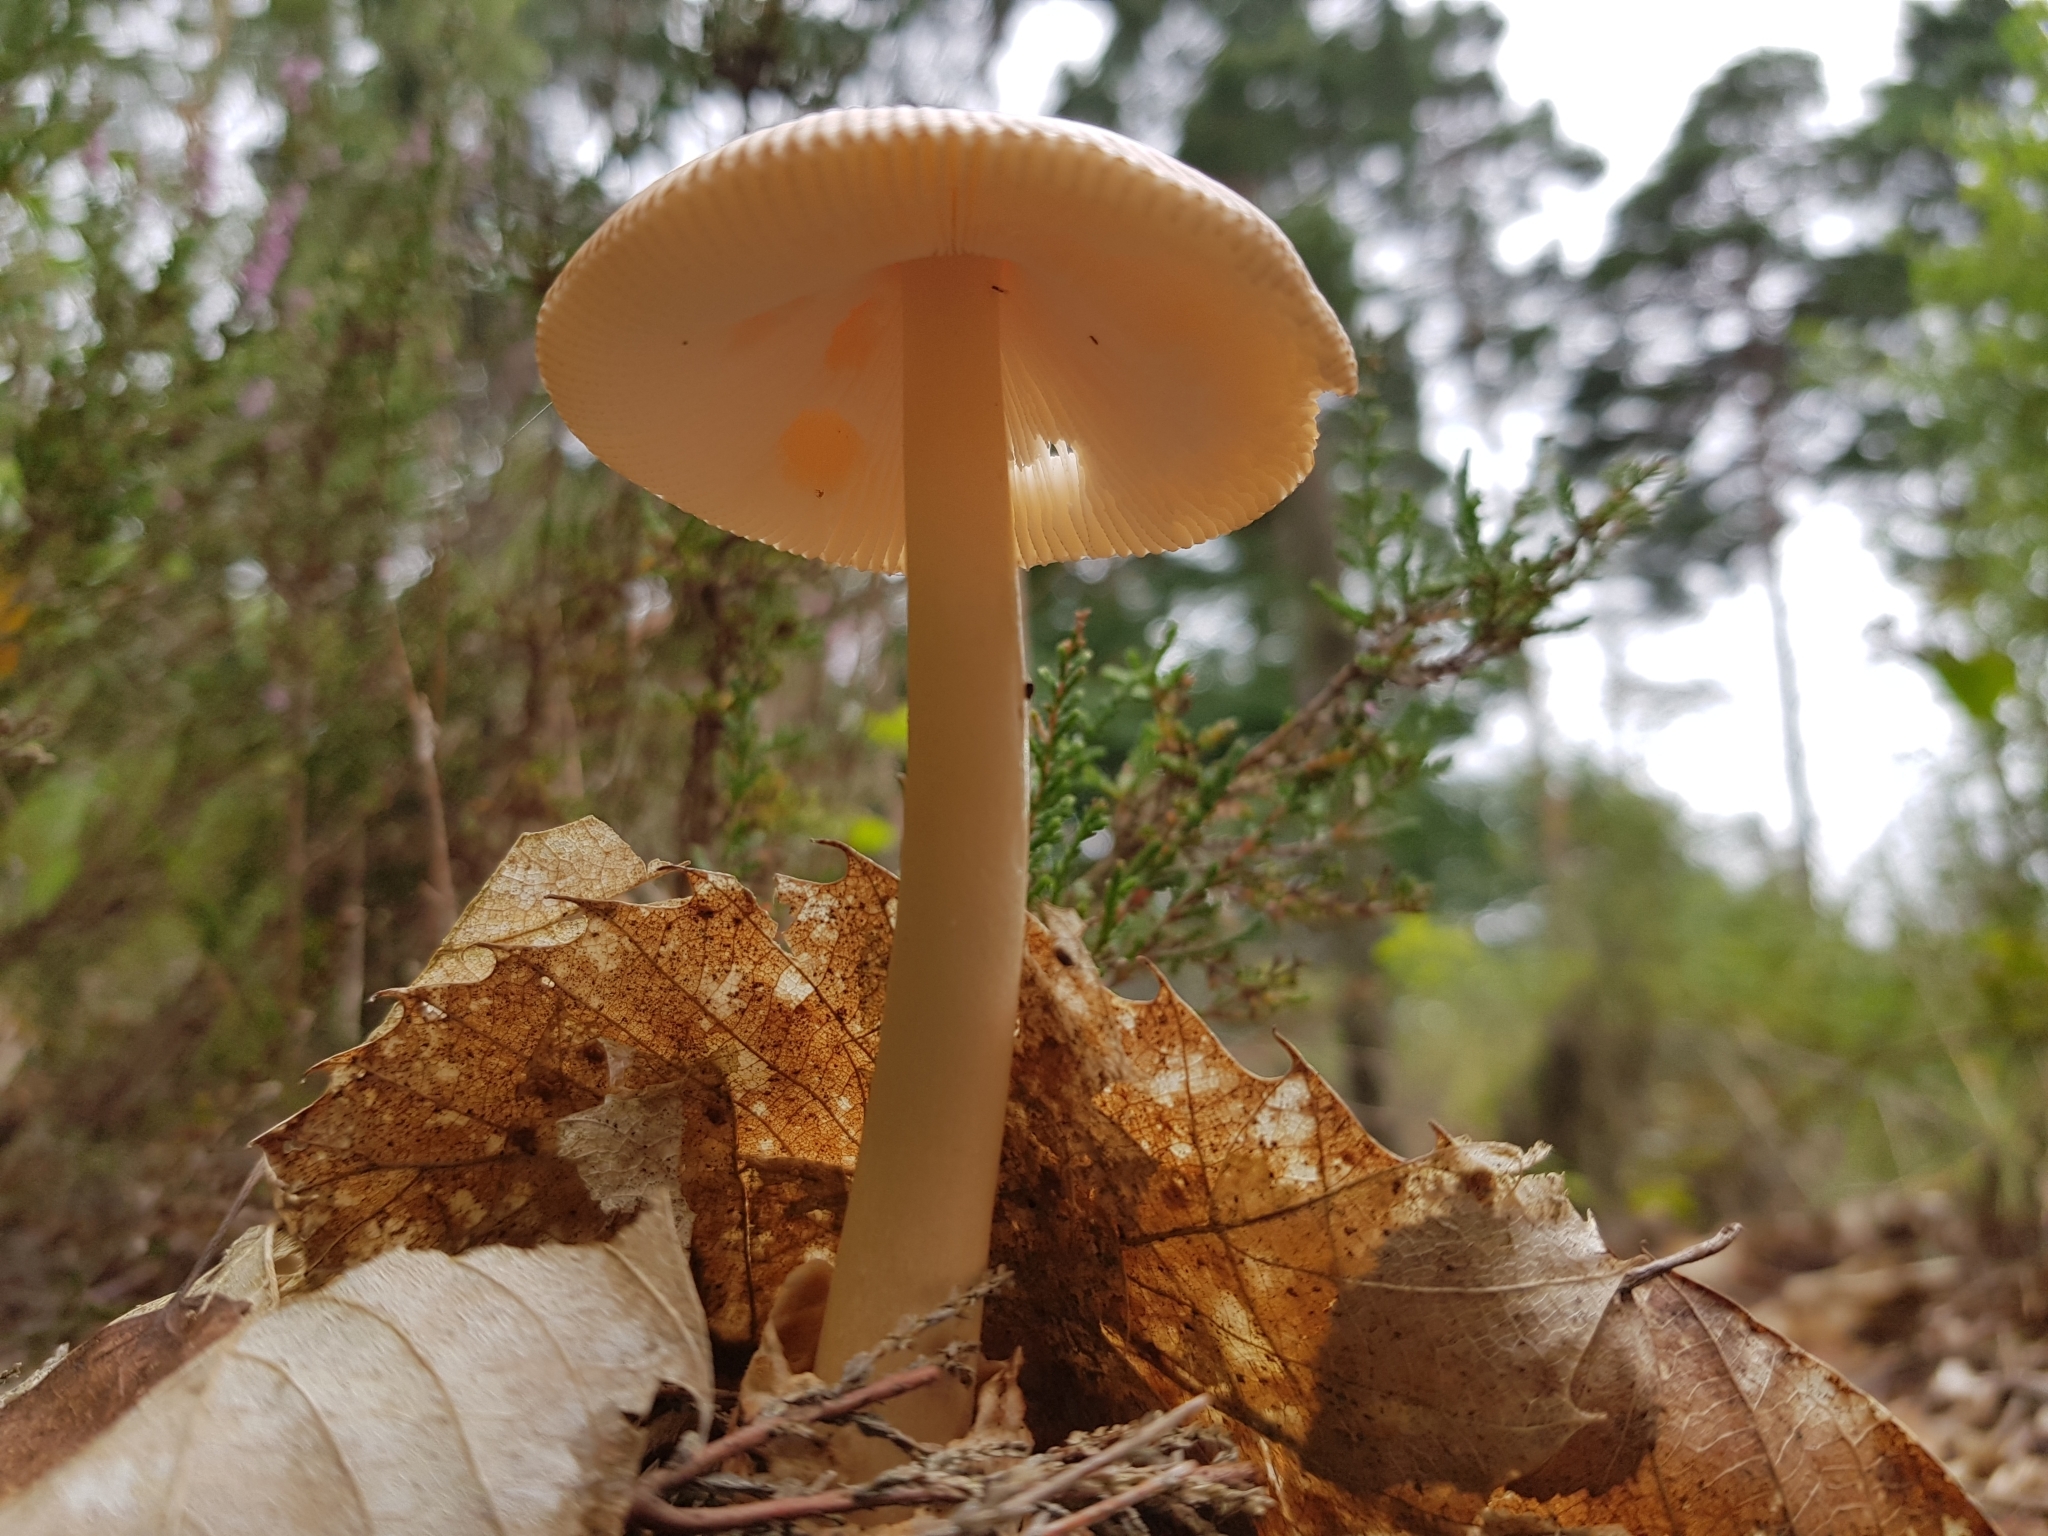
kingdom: Fungi
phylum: Basidiomycota
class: Agaricomycetes
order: Agaricales
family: Amanitaceae
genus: Amanita
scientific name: Amanita fulva
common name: Tawny grisette
